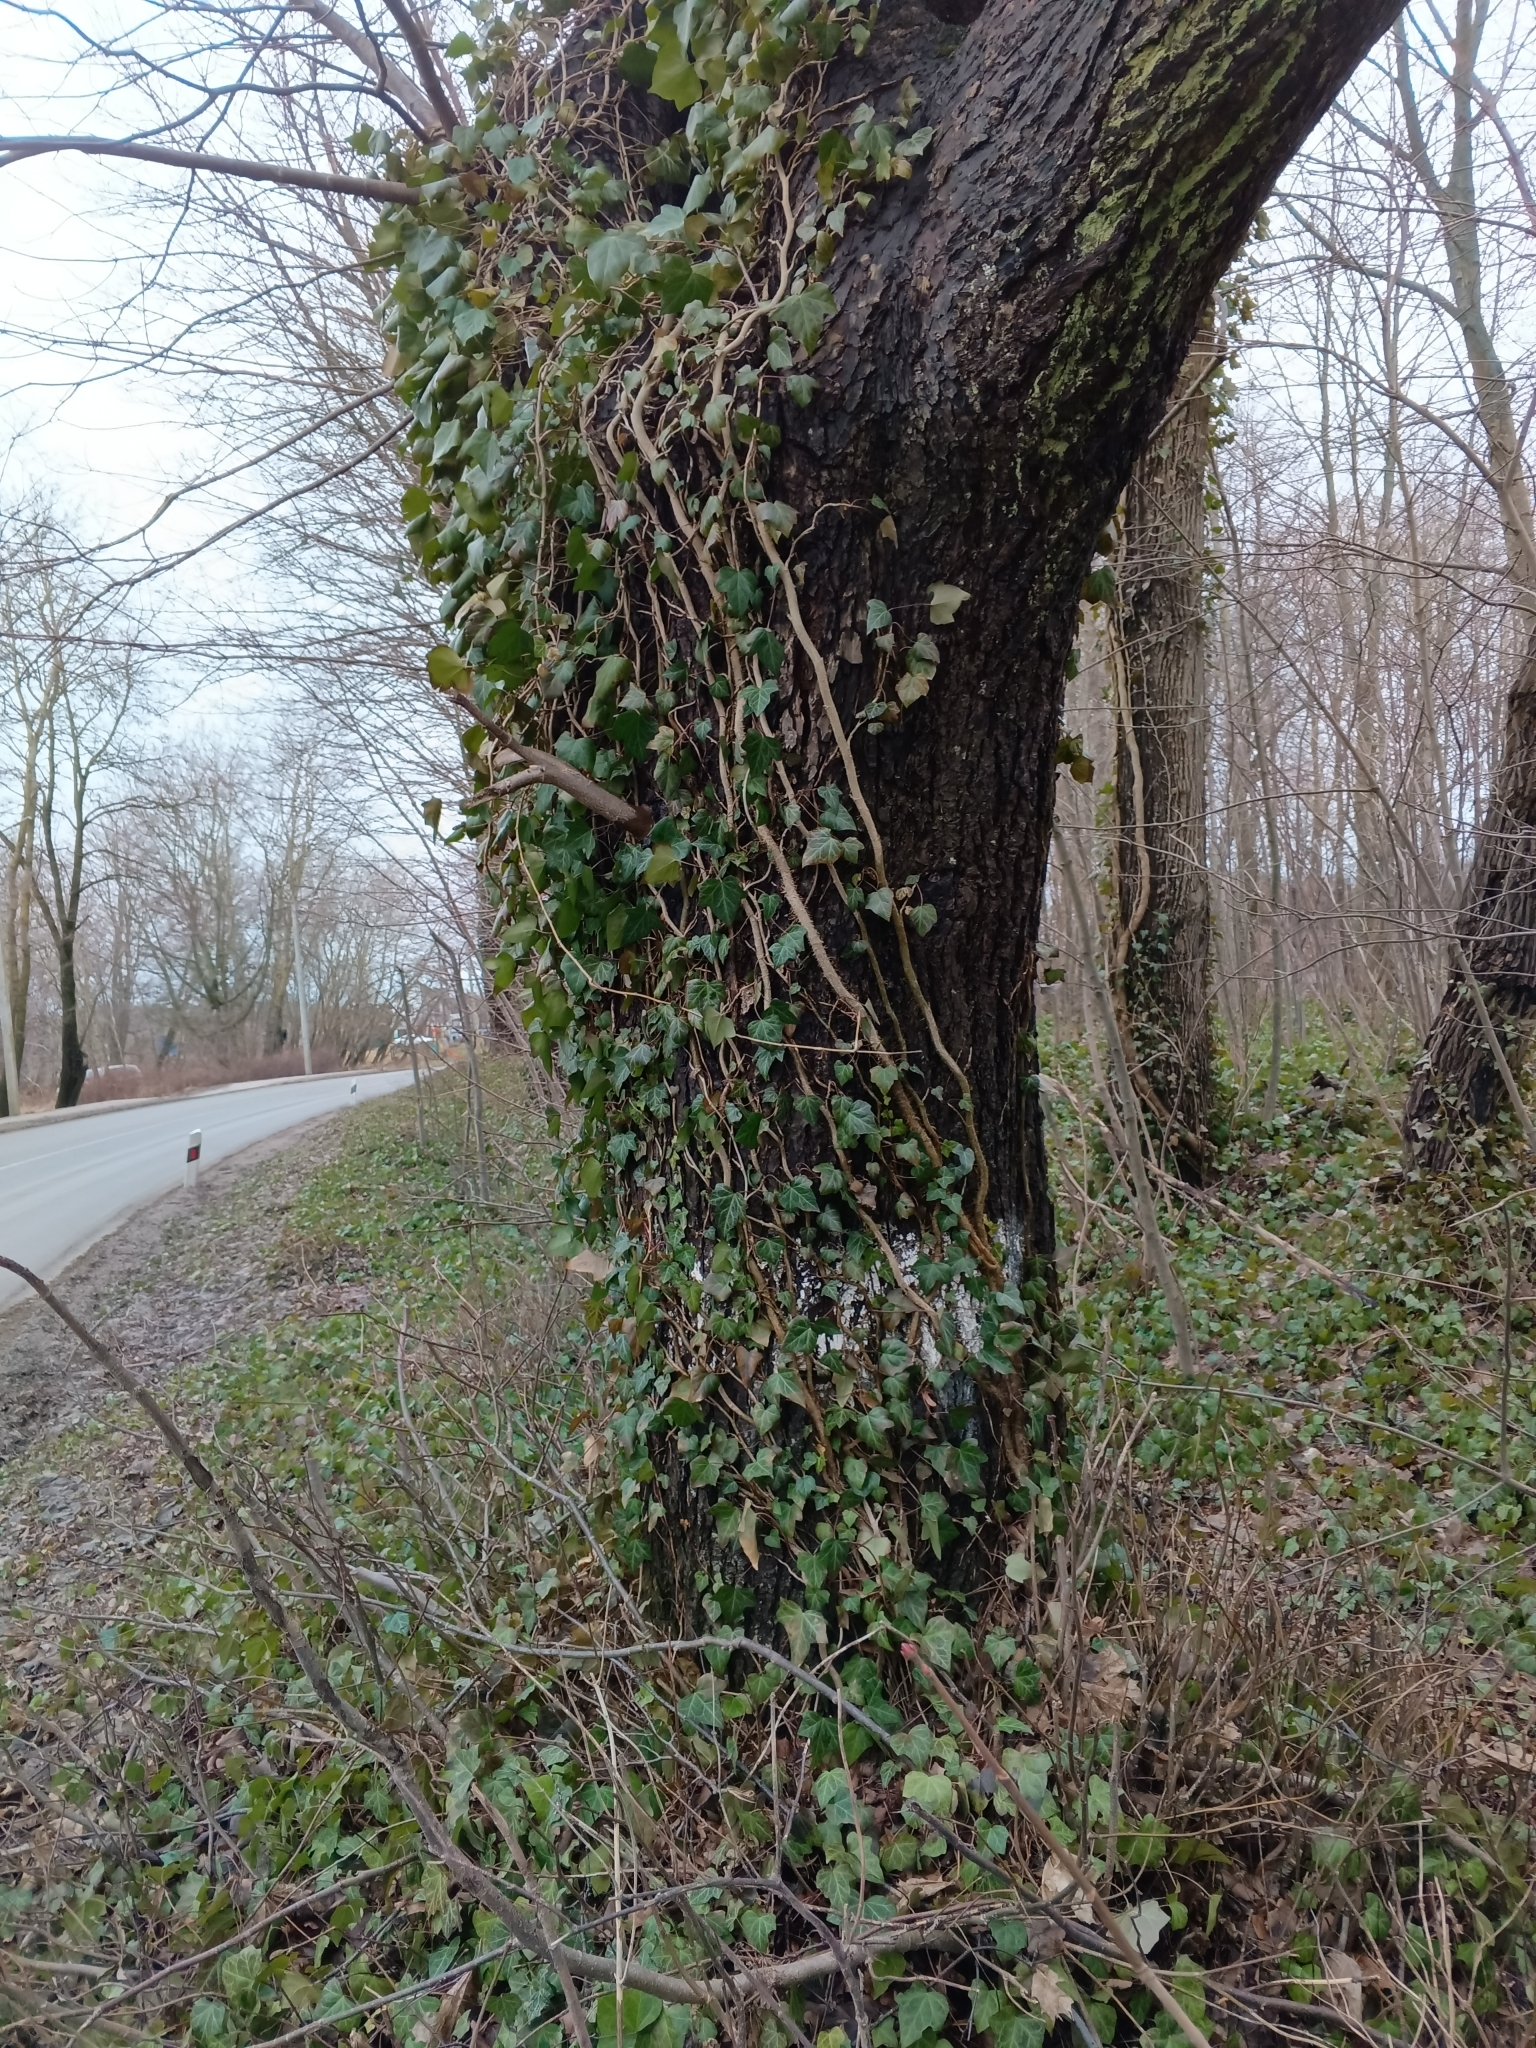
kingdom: Plantae
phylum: Tracheophyta
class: Magnoliopsida
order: Apiales
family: Araliaceae
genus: Hedera
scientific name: Hedera helix
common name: Ivy
